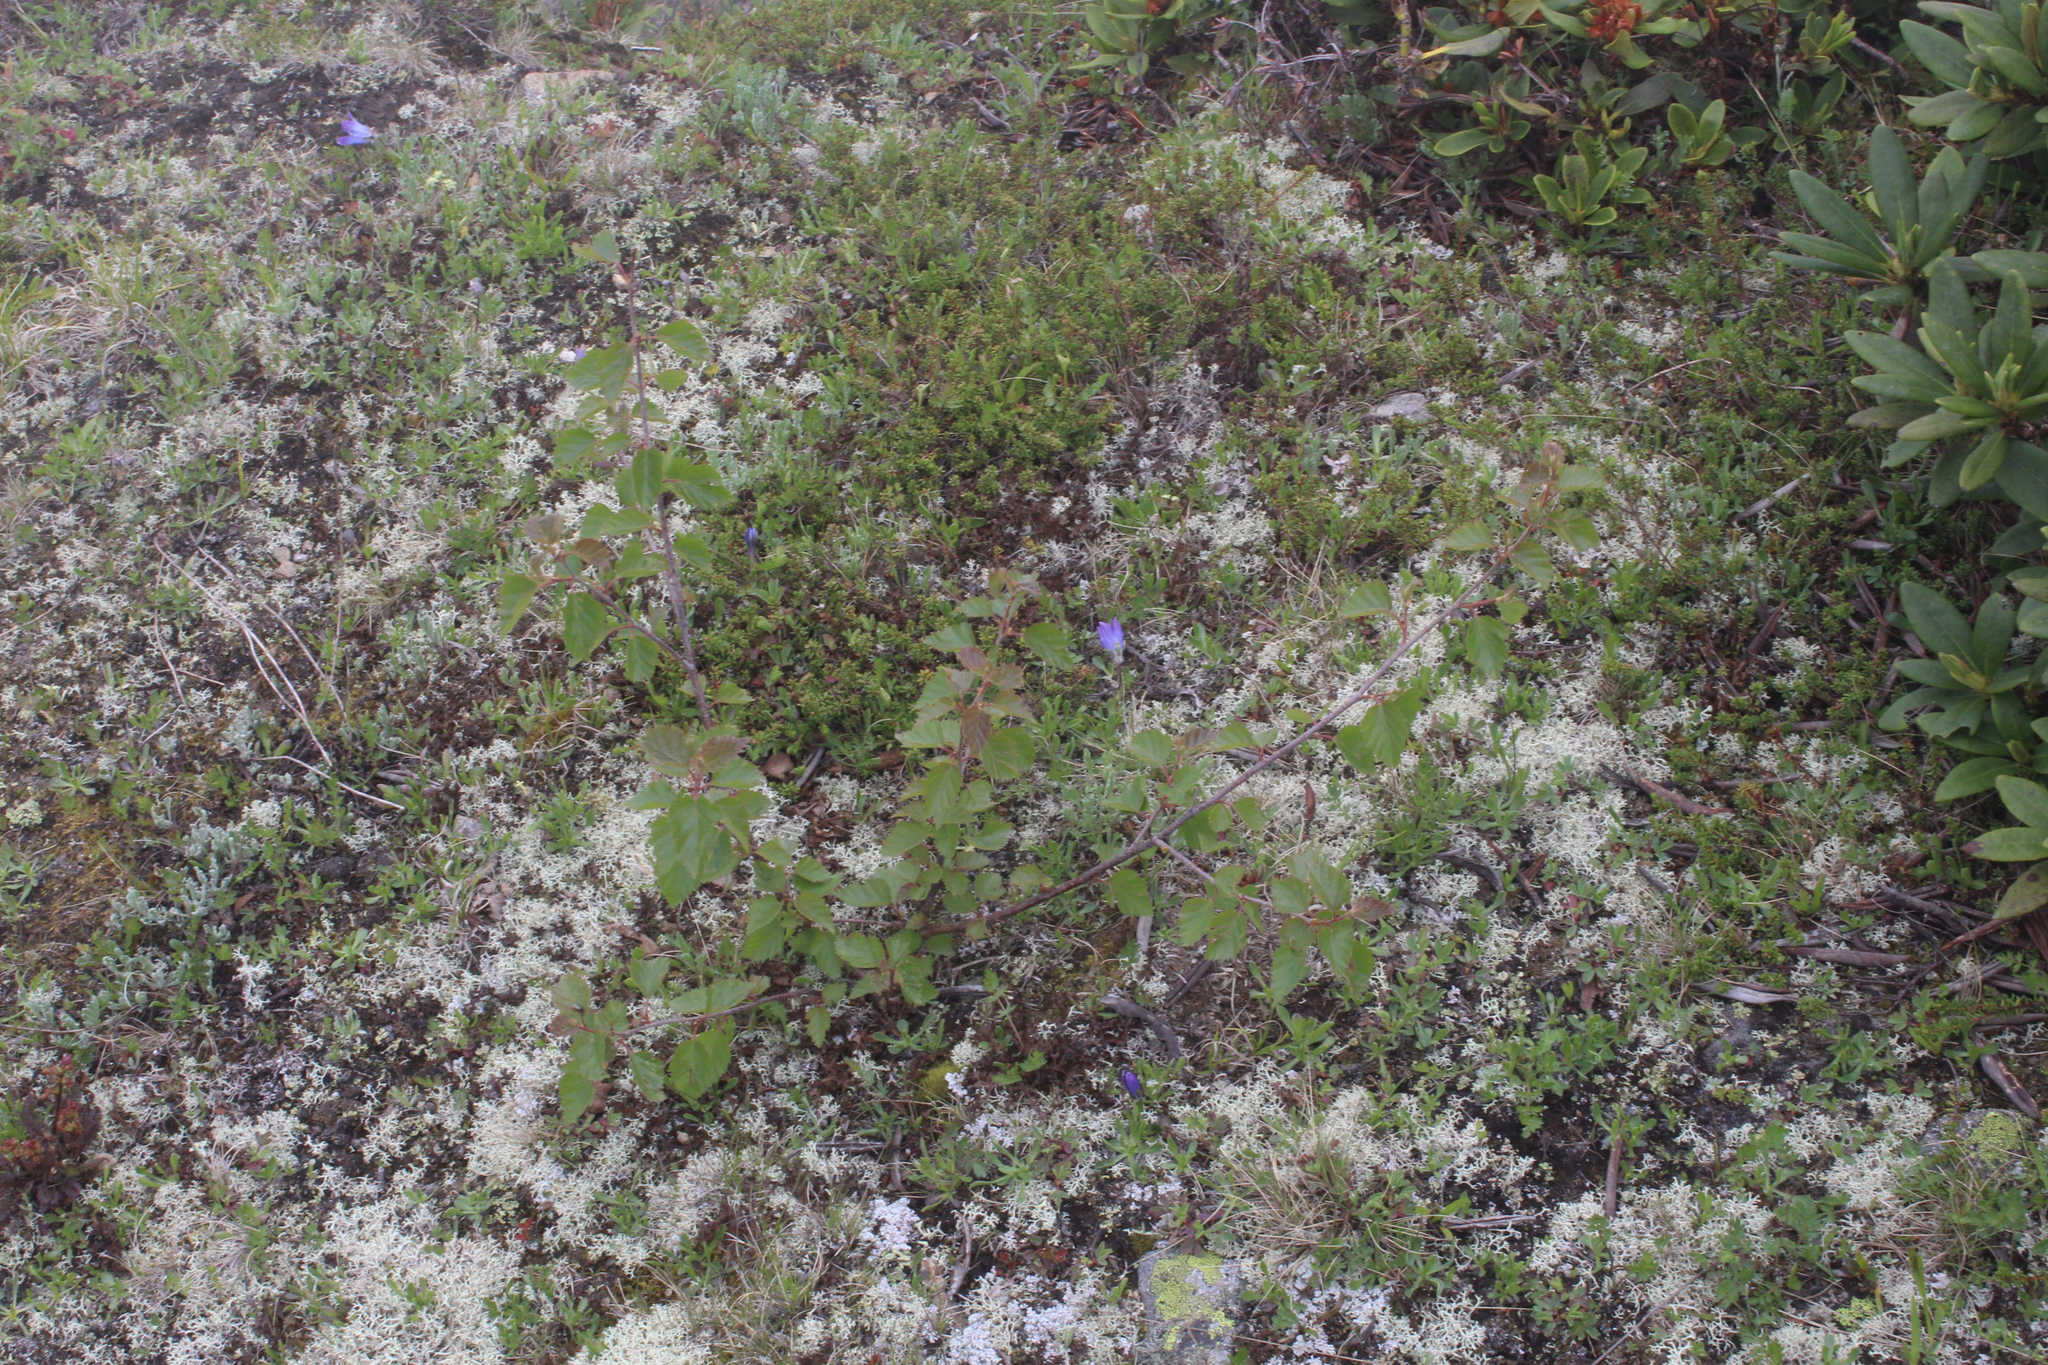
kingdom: Plantae
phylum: Tracheophyta
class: Magnoliopsida
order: Fagales
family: Betulaceae
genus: Betula
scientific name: Betula pubescens
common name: Downy birch
